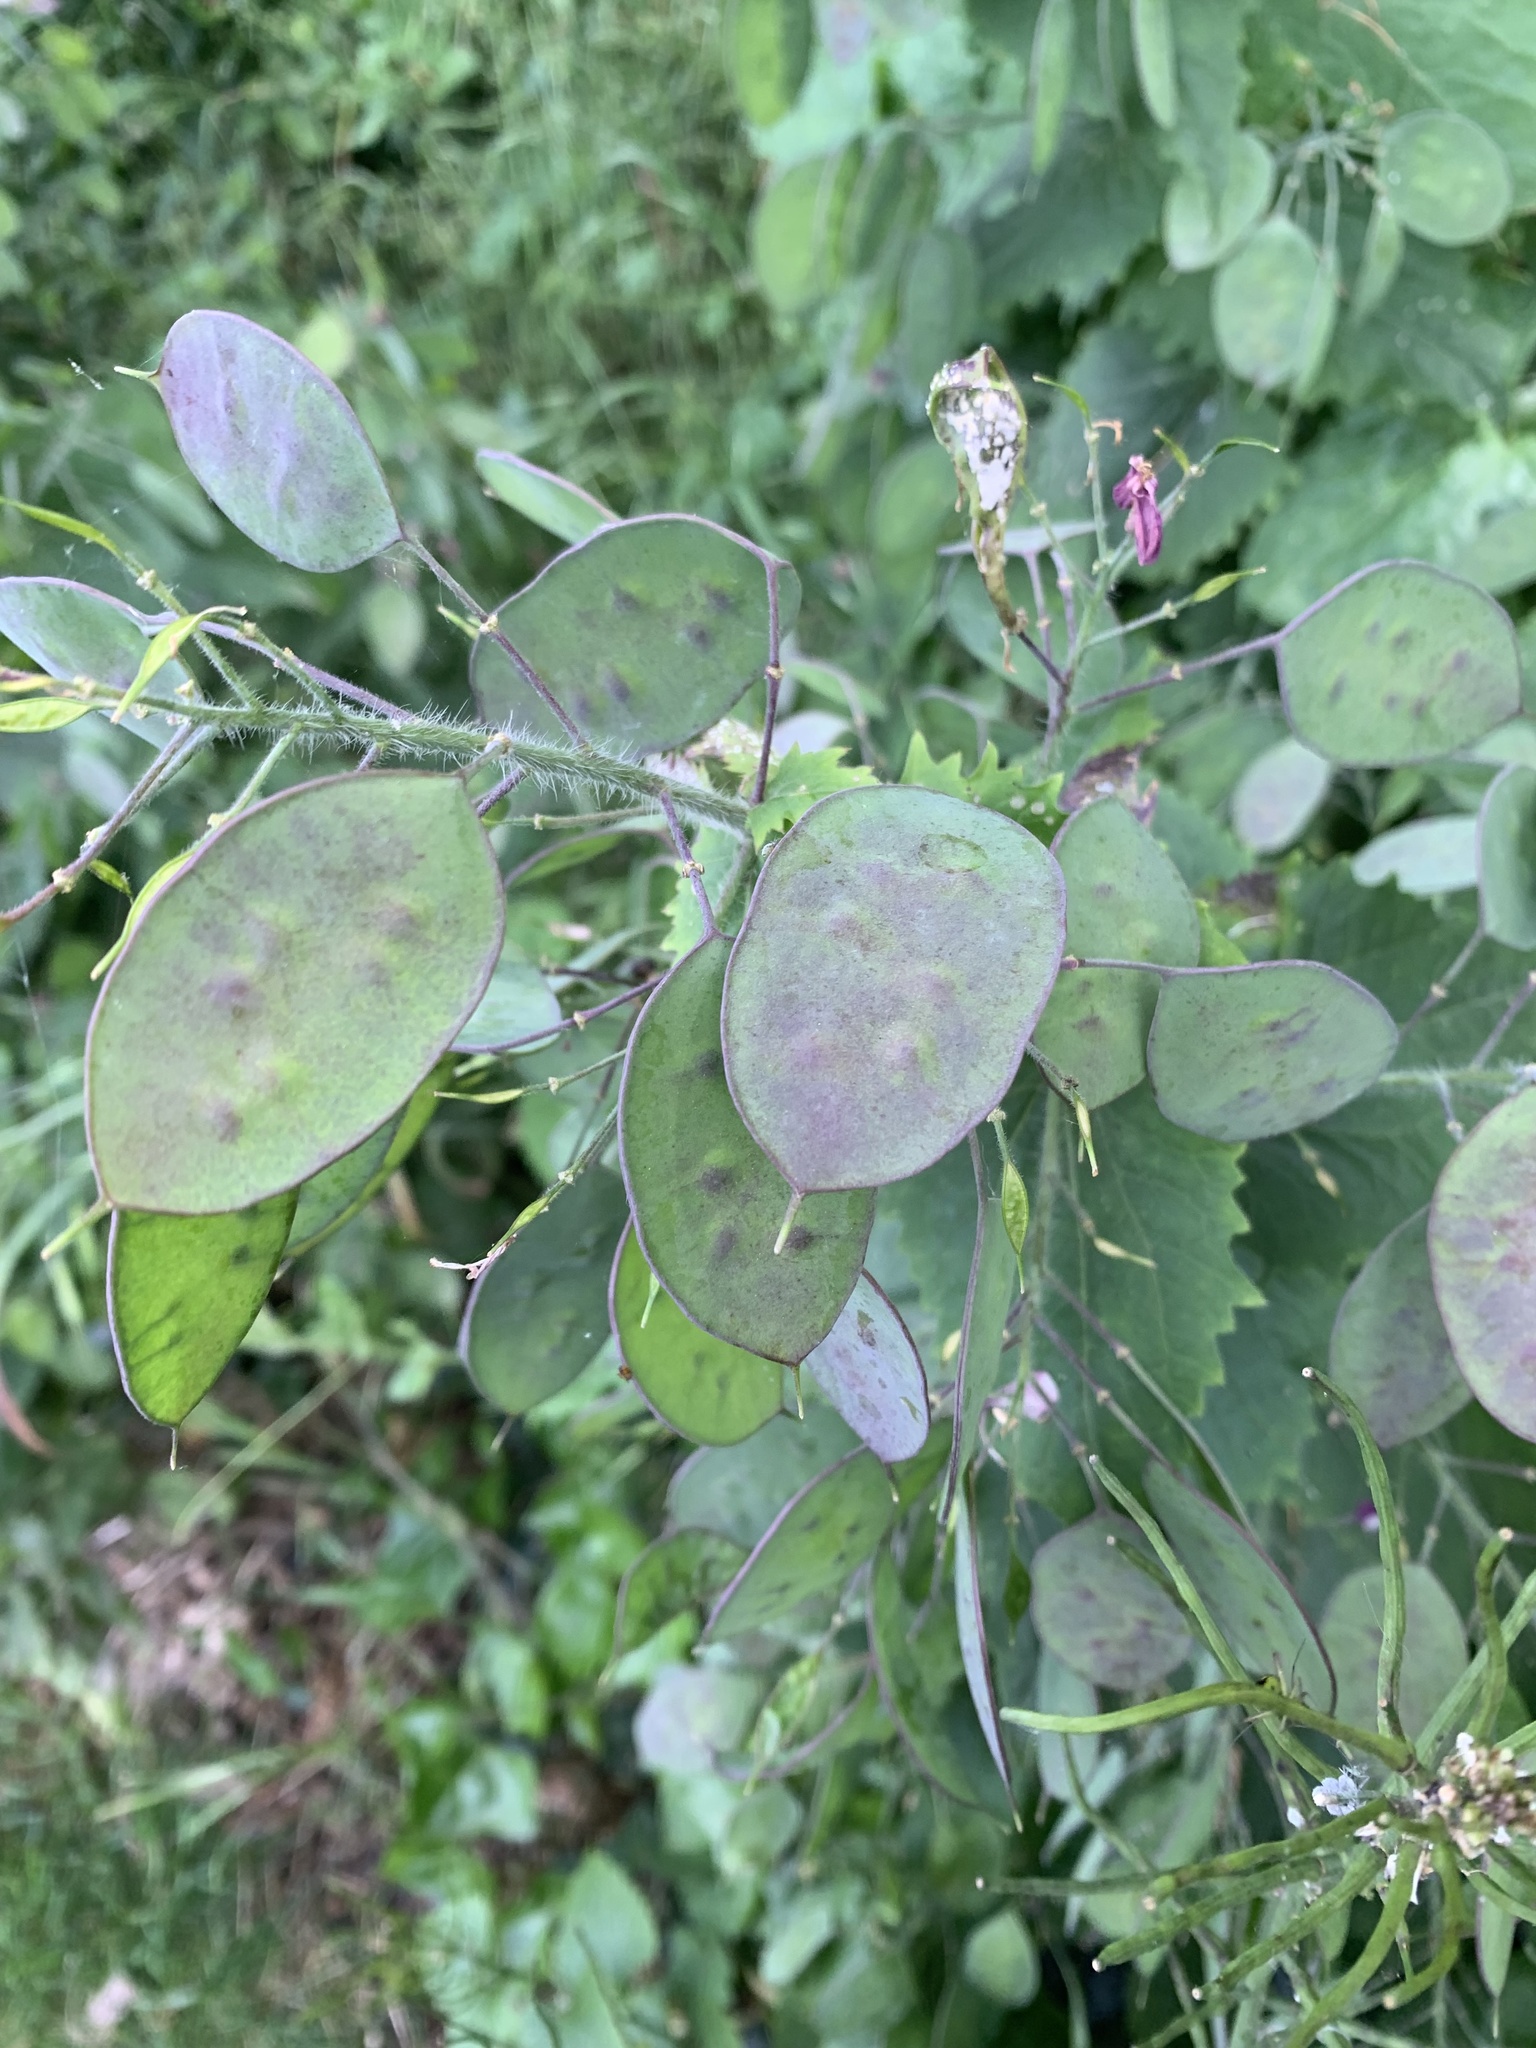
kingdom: Plantae
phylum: Tracheophyta
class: Magnoliopsida
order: Brassicales
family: Brassicaceae
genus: Lunaria
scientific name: Lunaria annua
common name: Honesty
